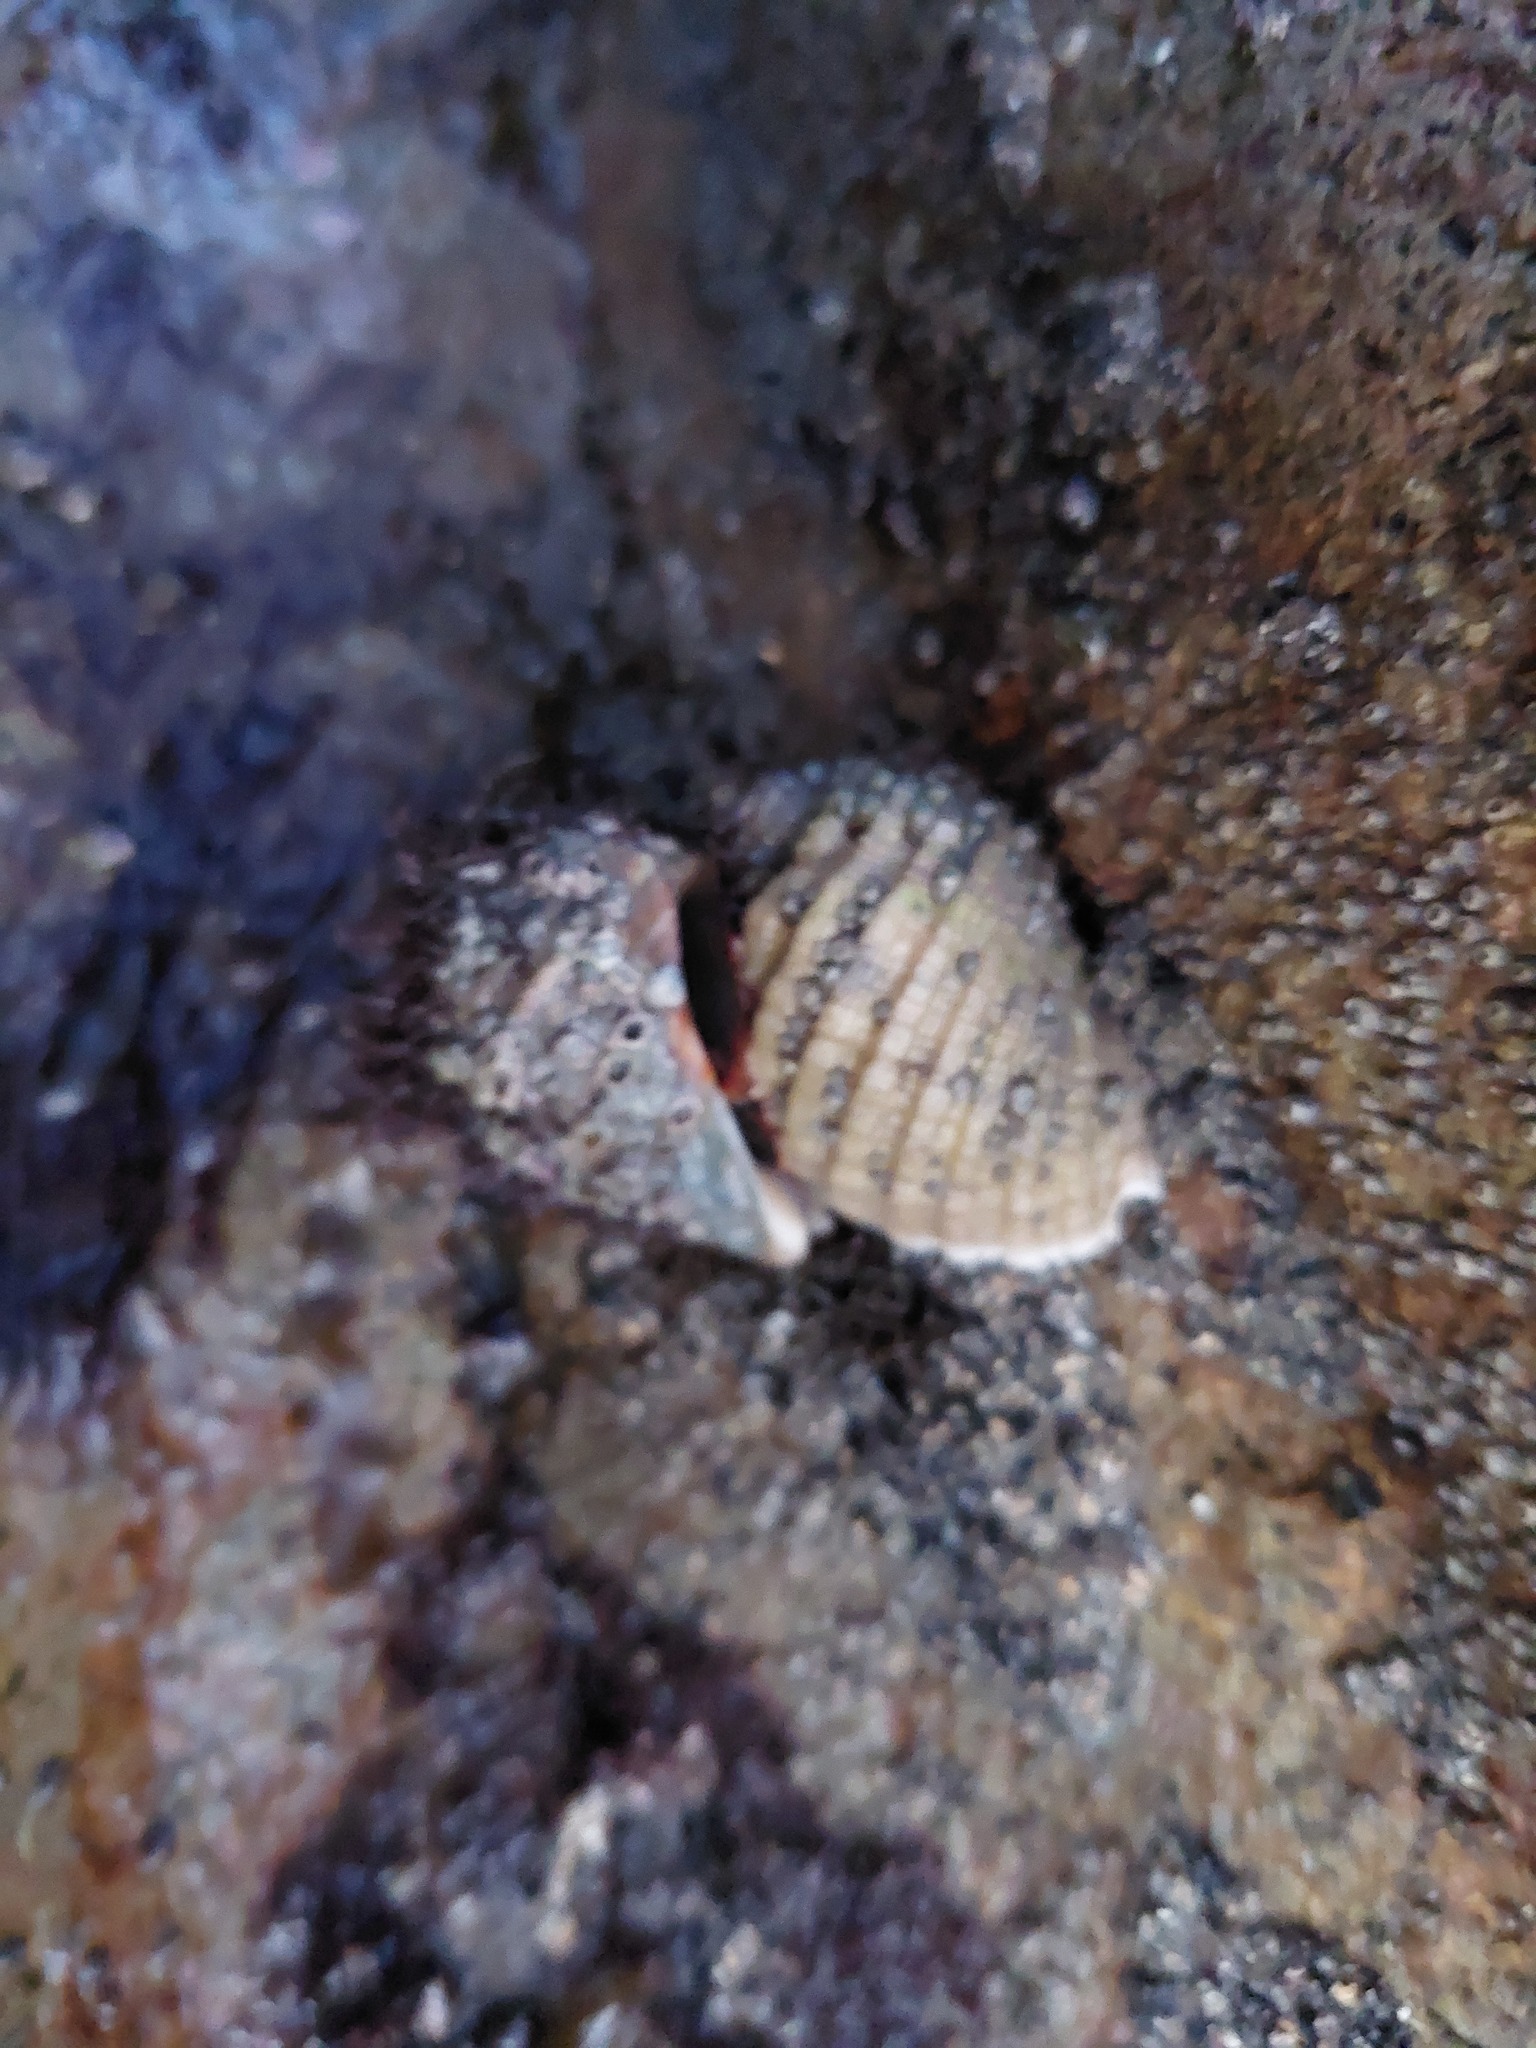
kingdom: Animalia
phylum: Mollusca
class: Gastropoda
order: Neogastropoda
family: Muricidae
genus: Dicathais
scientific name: Dicathais orbita
